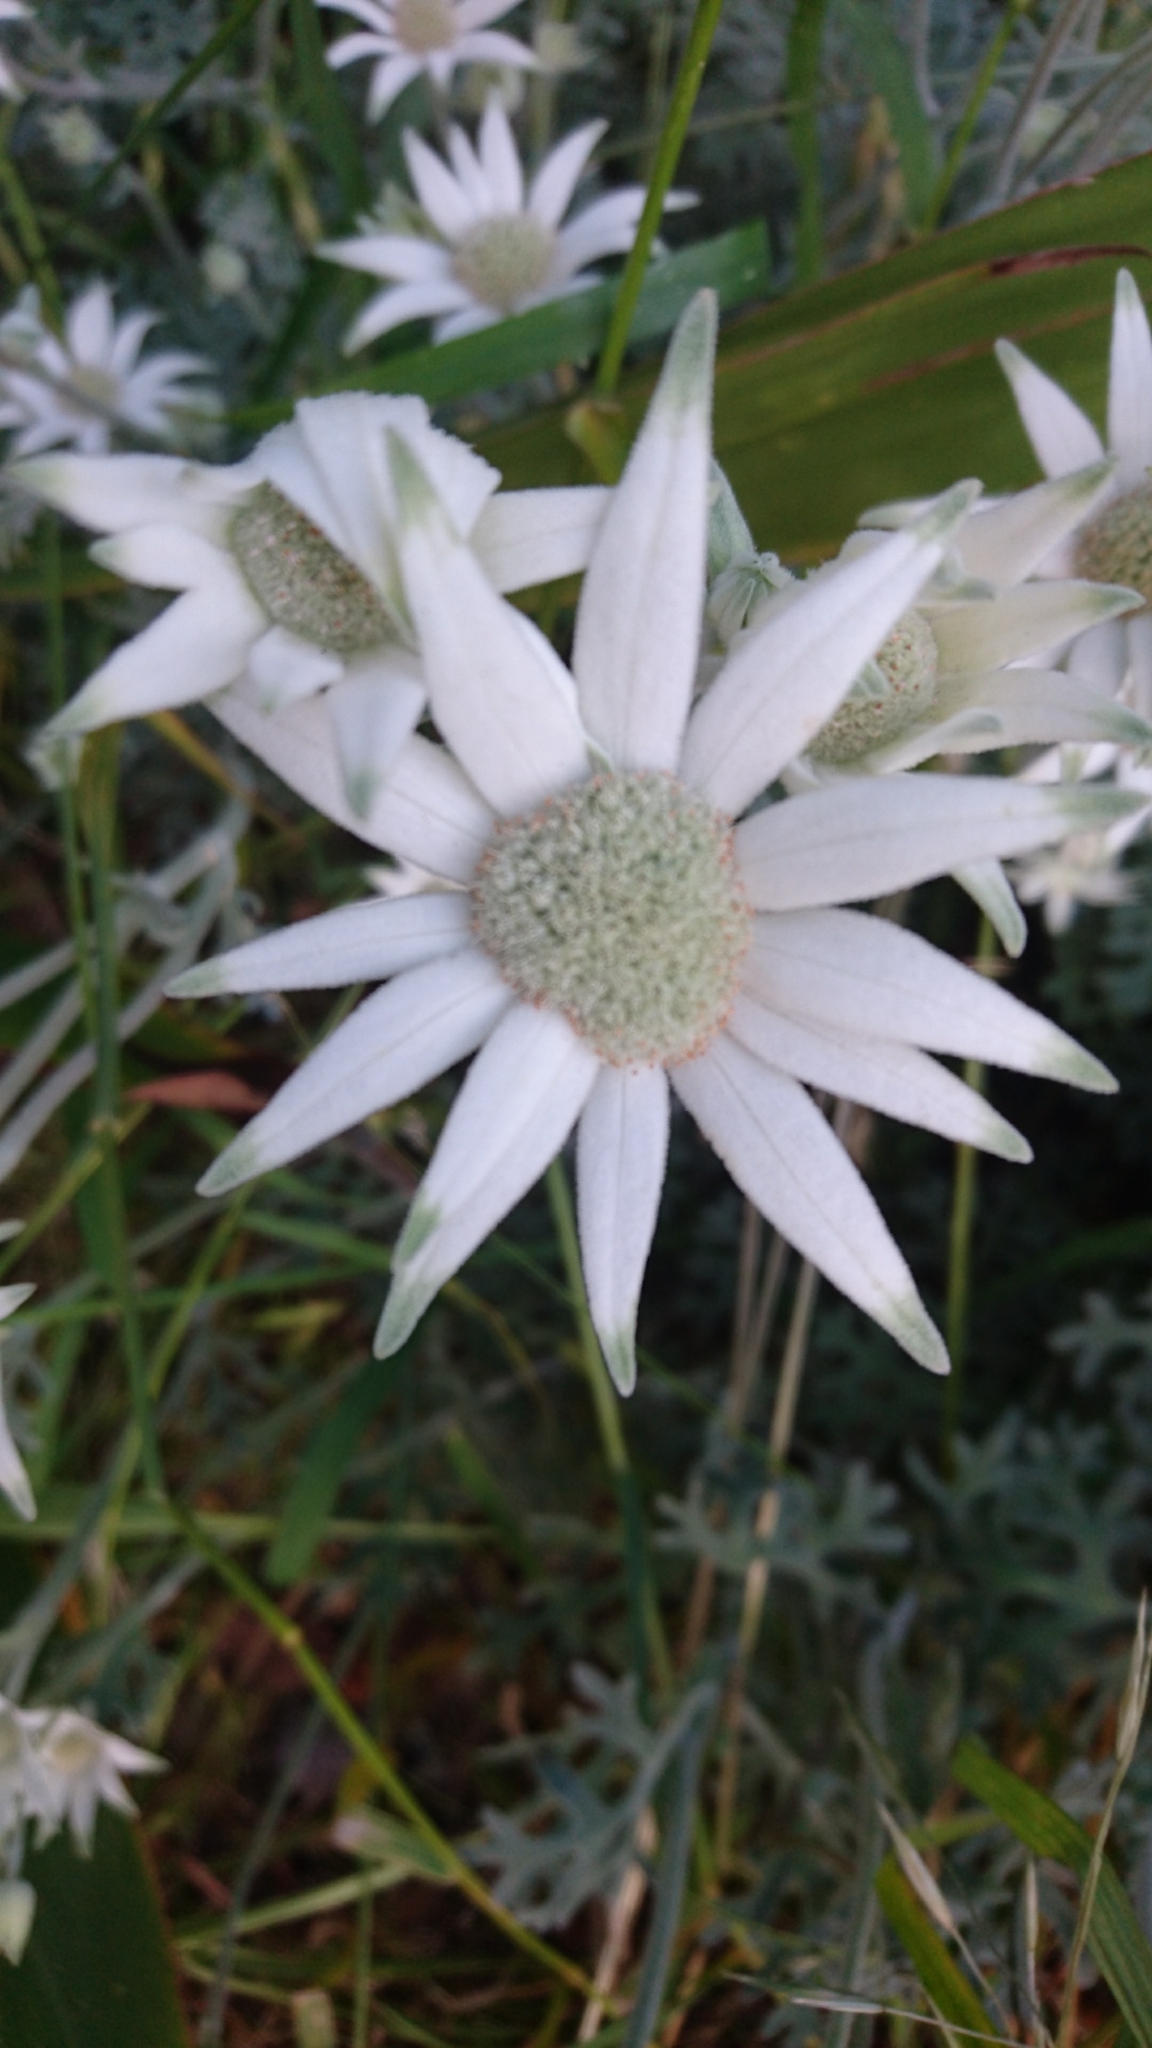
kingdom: Plantae
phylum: Tracheophyta
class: Magnoliopsida
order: Apiales
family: Apiaceae
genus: Actinotus
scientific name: Actinotus helianthi
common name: Flannel-flower
